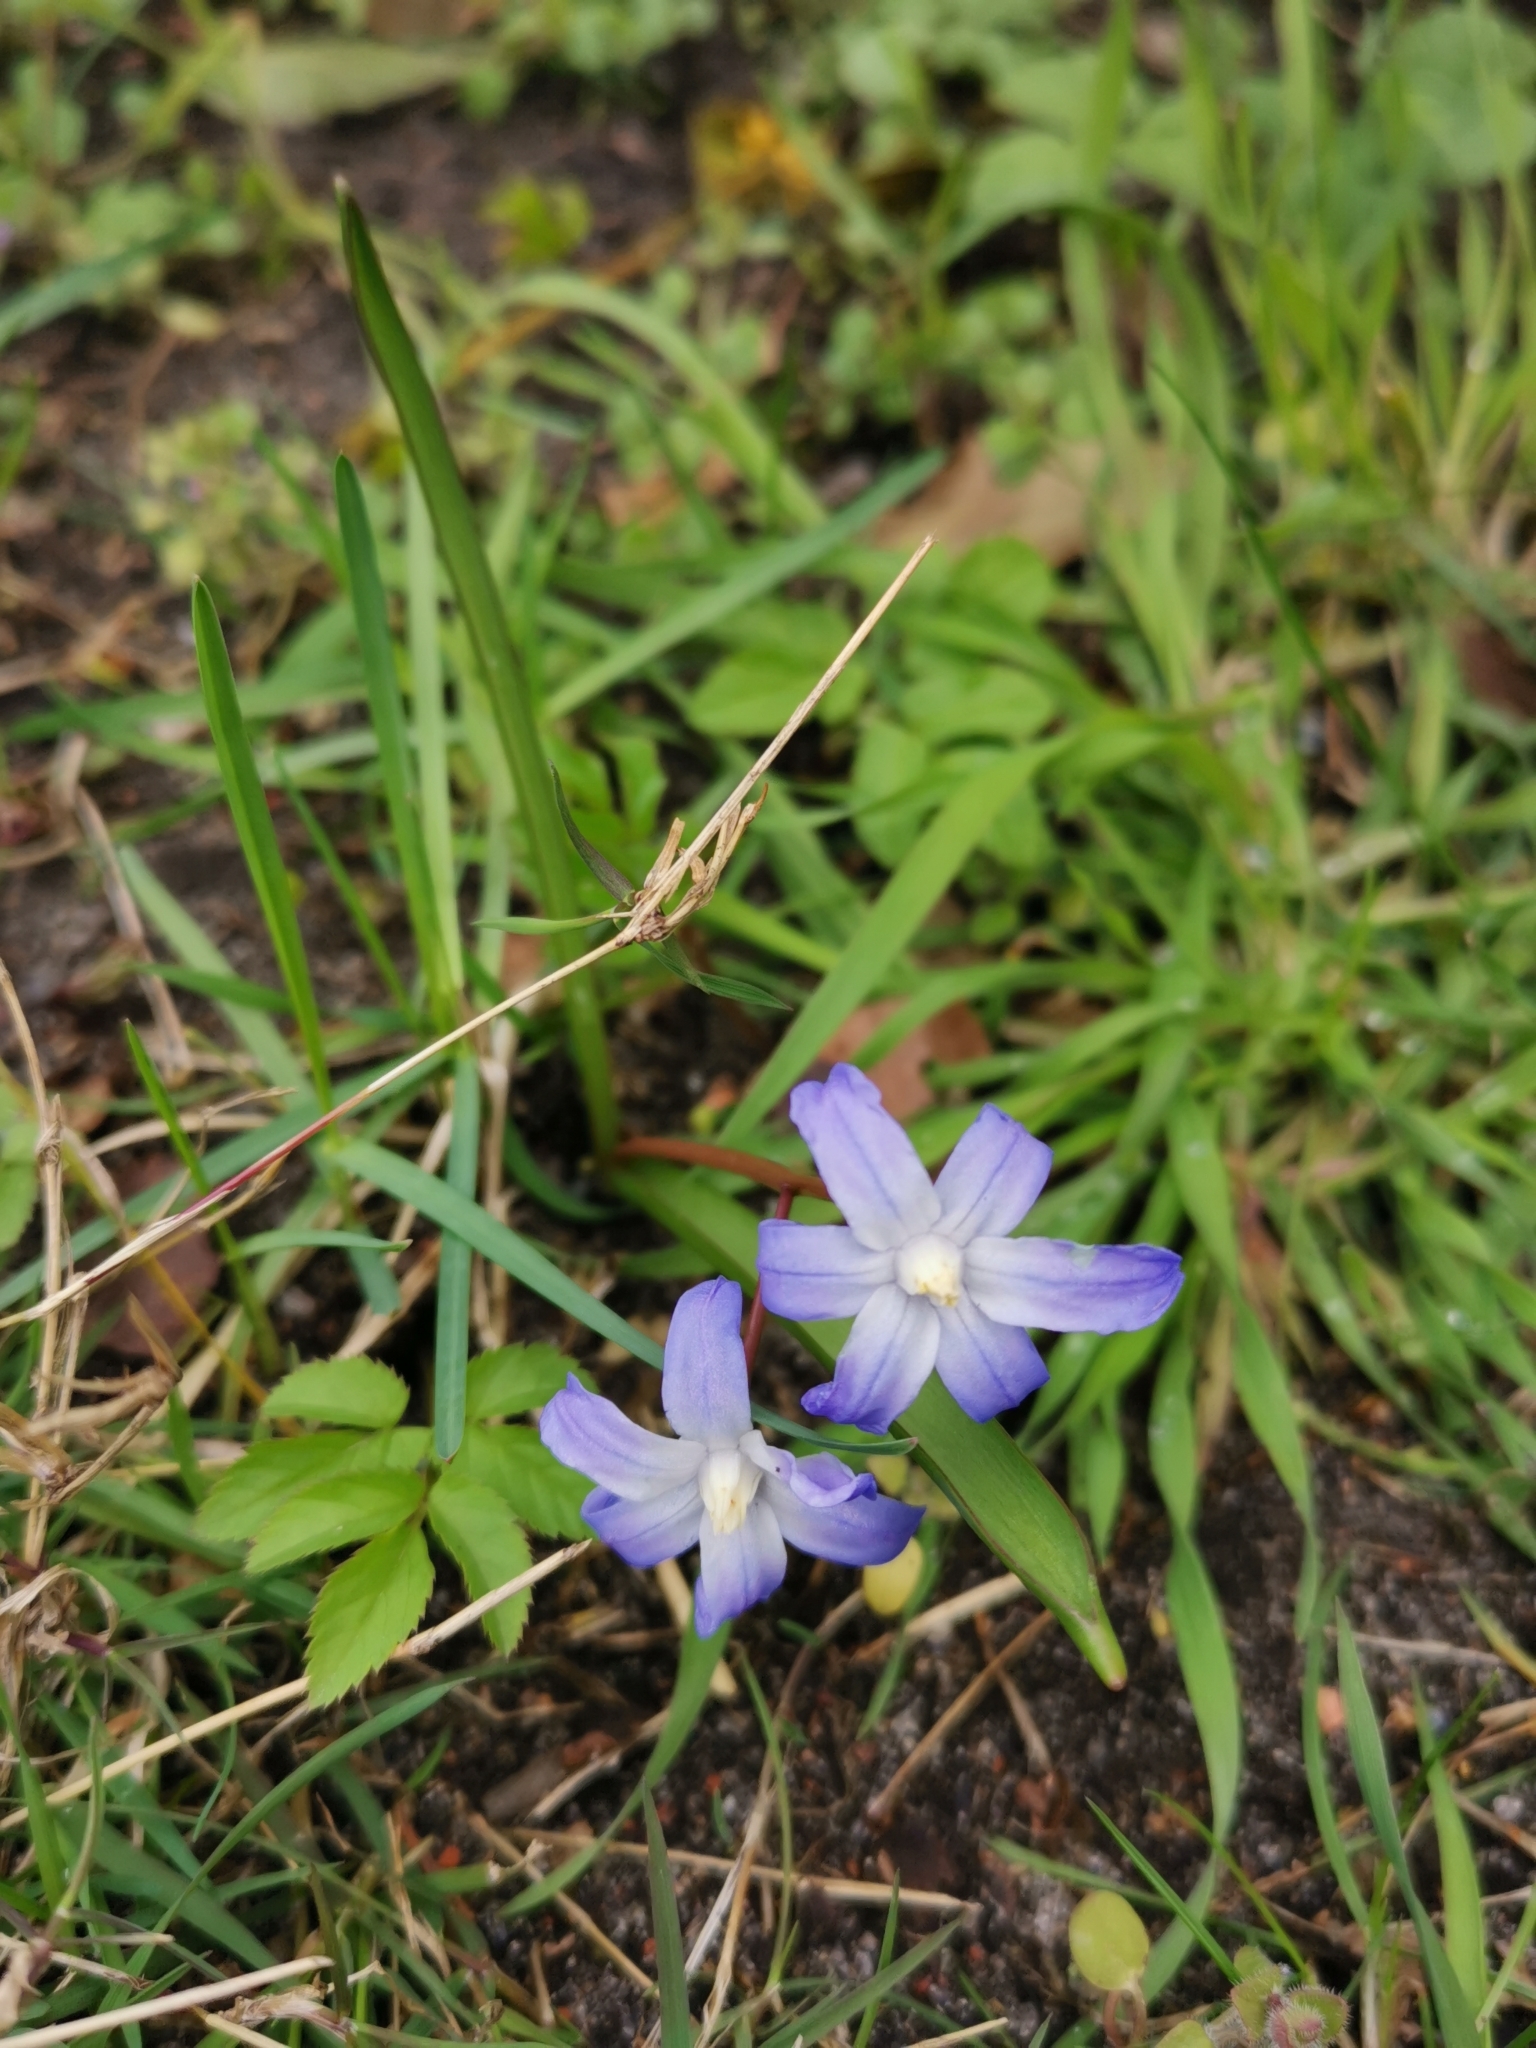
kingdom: Plantae
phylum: Tracheophyta
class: Liliopsida
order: Asparagales
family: Asparagaceae
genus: Scilla
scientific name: Scilla luciliae
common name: Boissier's glory-of-the-snow
